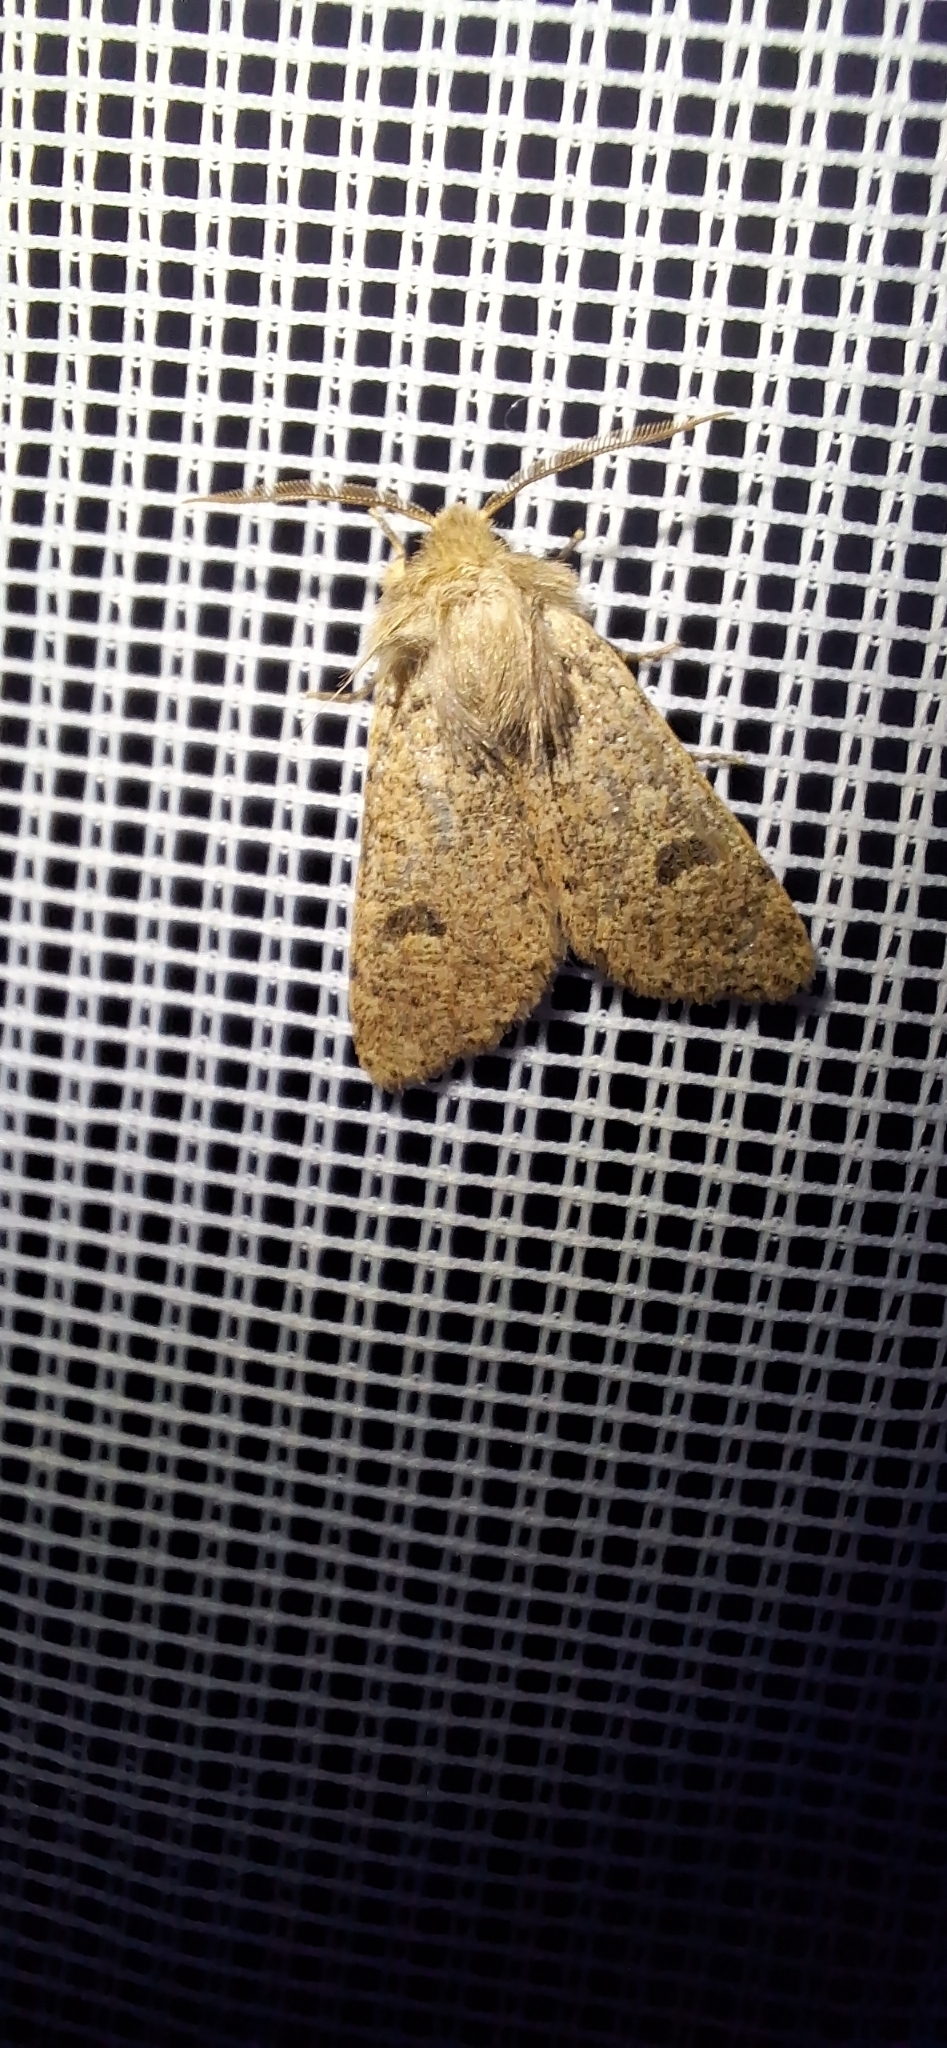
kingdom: Animalia
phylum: Arthropoda
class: Insecta
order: Lepidoptera
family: Noctuidae
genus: Orthosia
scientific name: Orthosia cruda
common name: Small quaker
